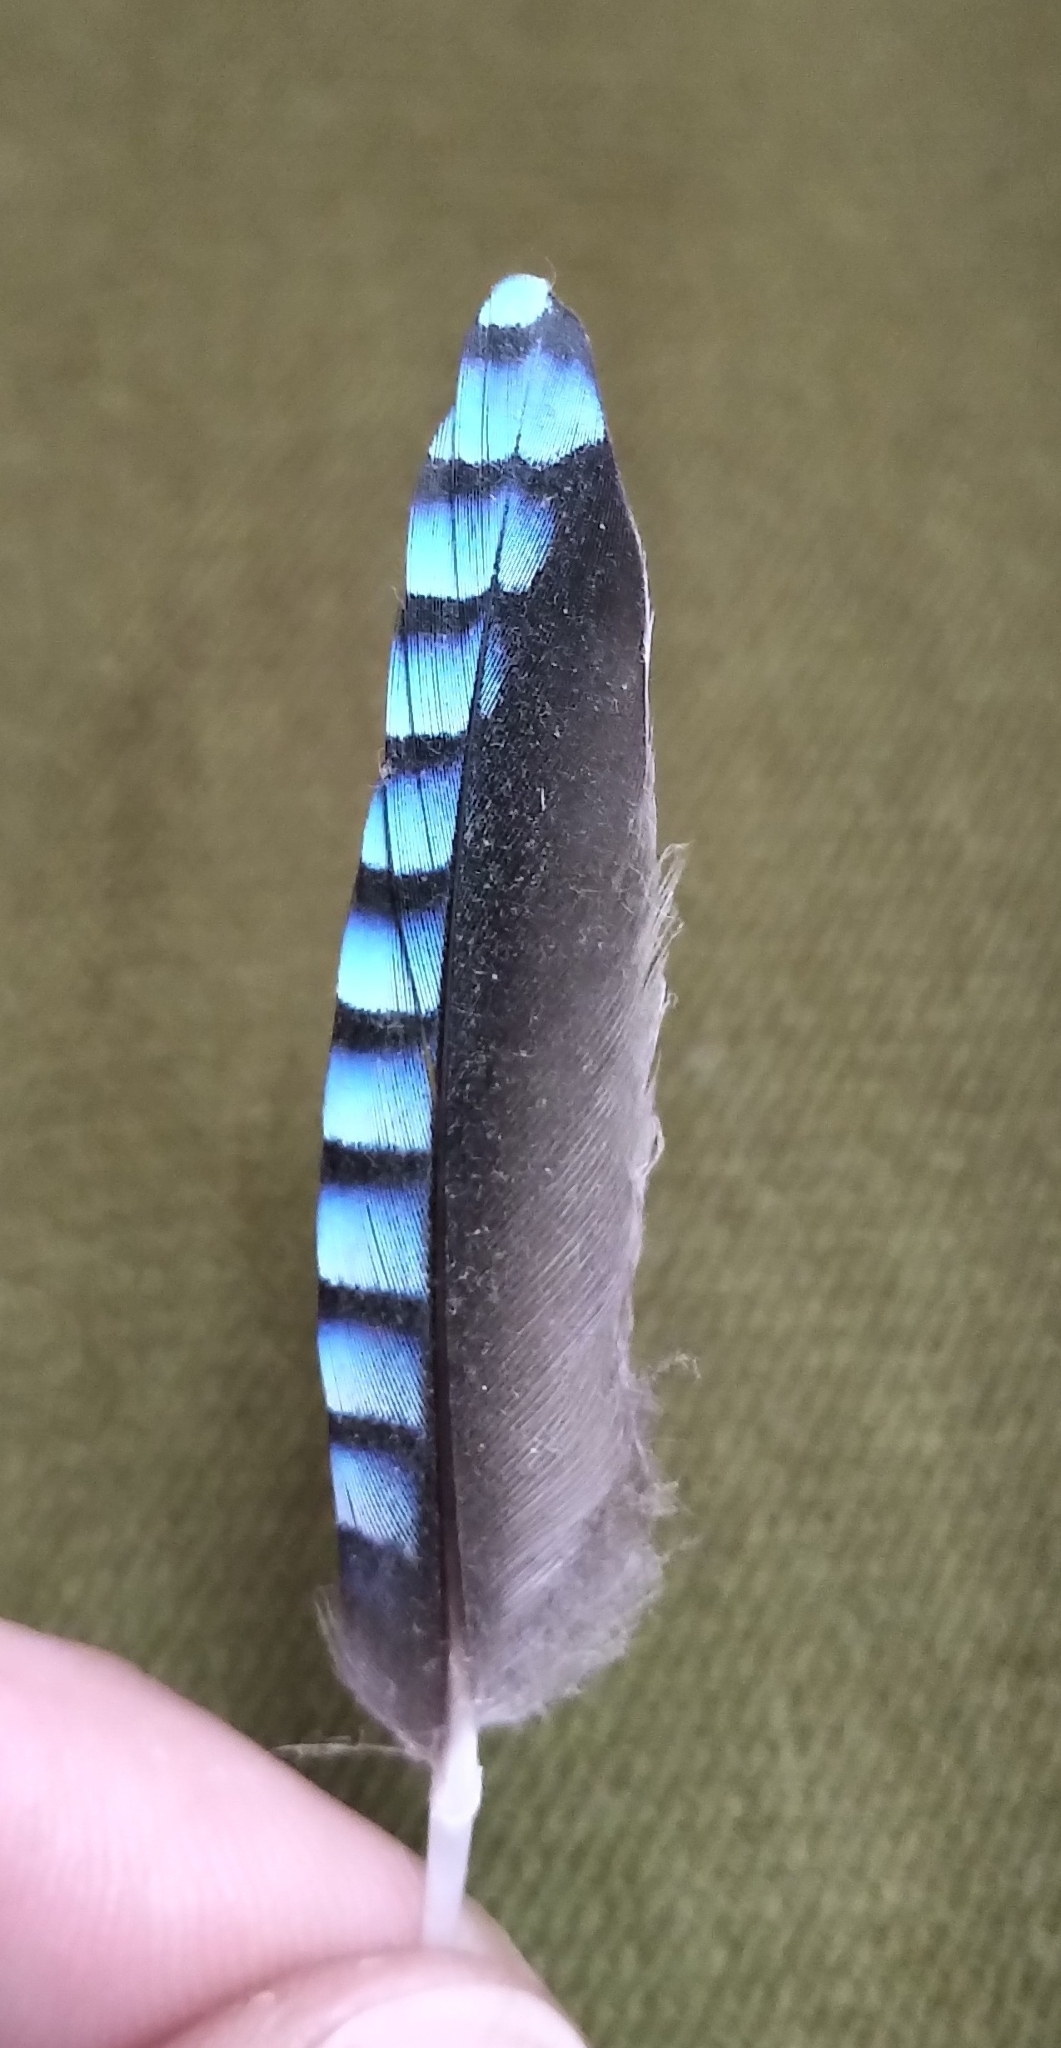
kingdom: Animalia
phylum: Chordata
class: Aves
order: Passeriformes
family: Corvidae
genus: Garrulus
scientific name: Garrulus glandarius
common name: Eurasian jay
